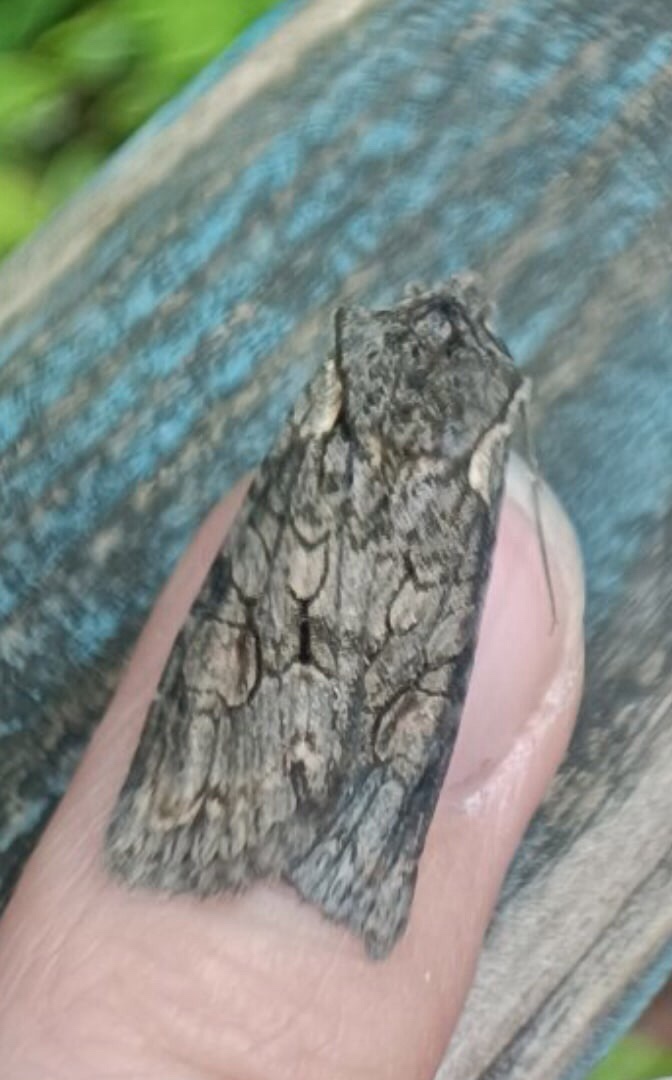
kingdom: Animalia
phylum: Arthropoda
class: Insecta
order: Lepidoptera
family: Noctuidae
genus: Lithophane
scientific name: Lithophane consocia
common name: Softly's shoulder-knot
